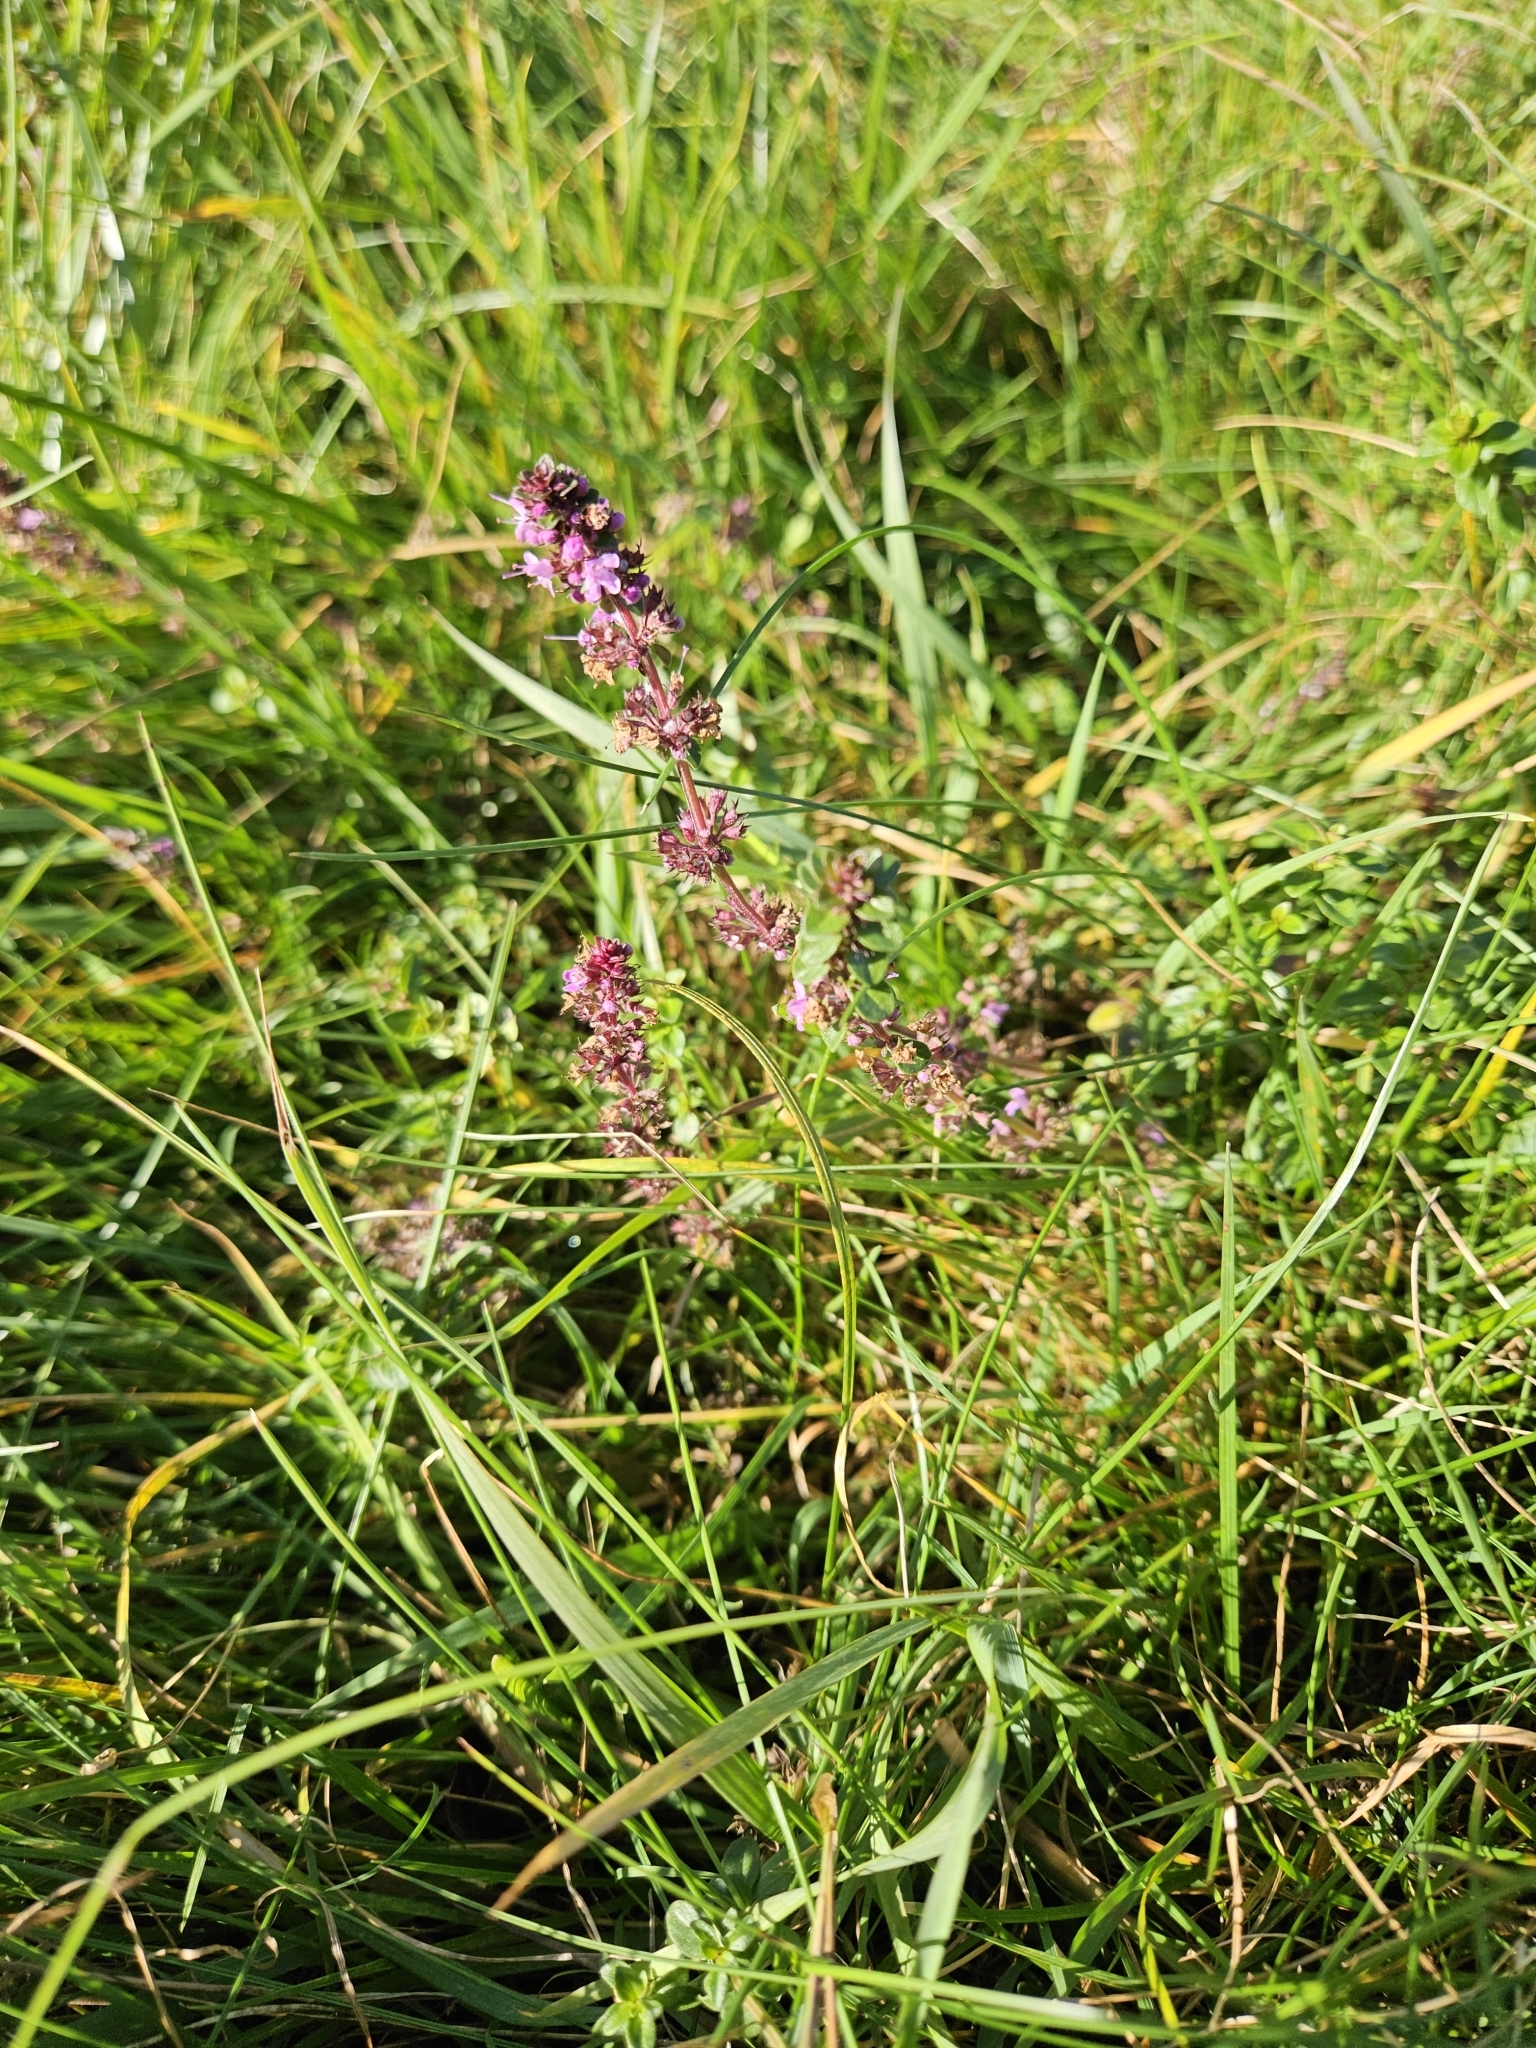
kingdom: Plantae
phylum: Tracheophyta
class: Magnoliopsida
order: Lamiales
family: Lamiaceae
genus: Thymus
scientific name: Thymus pulegioides
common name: Large thyme
